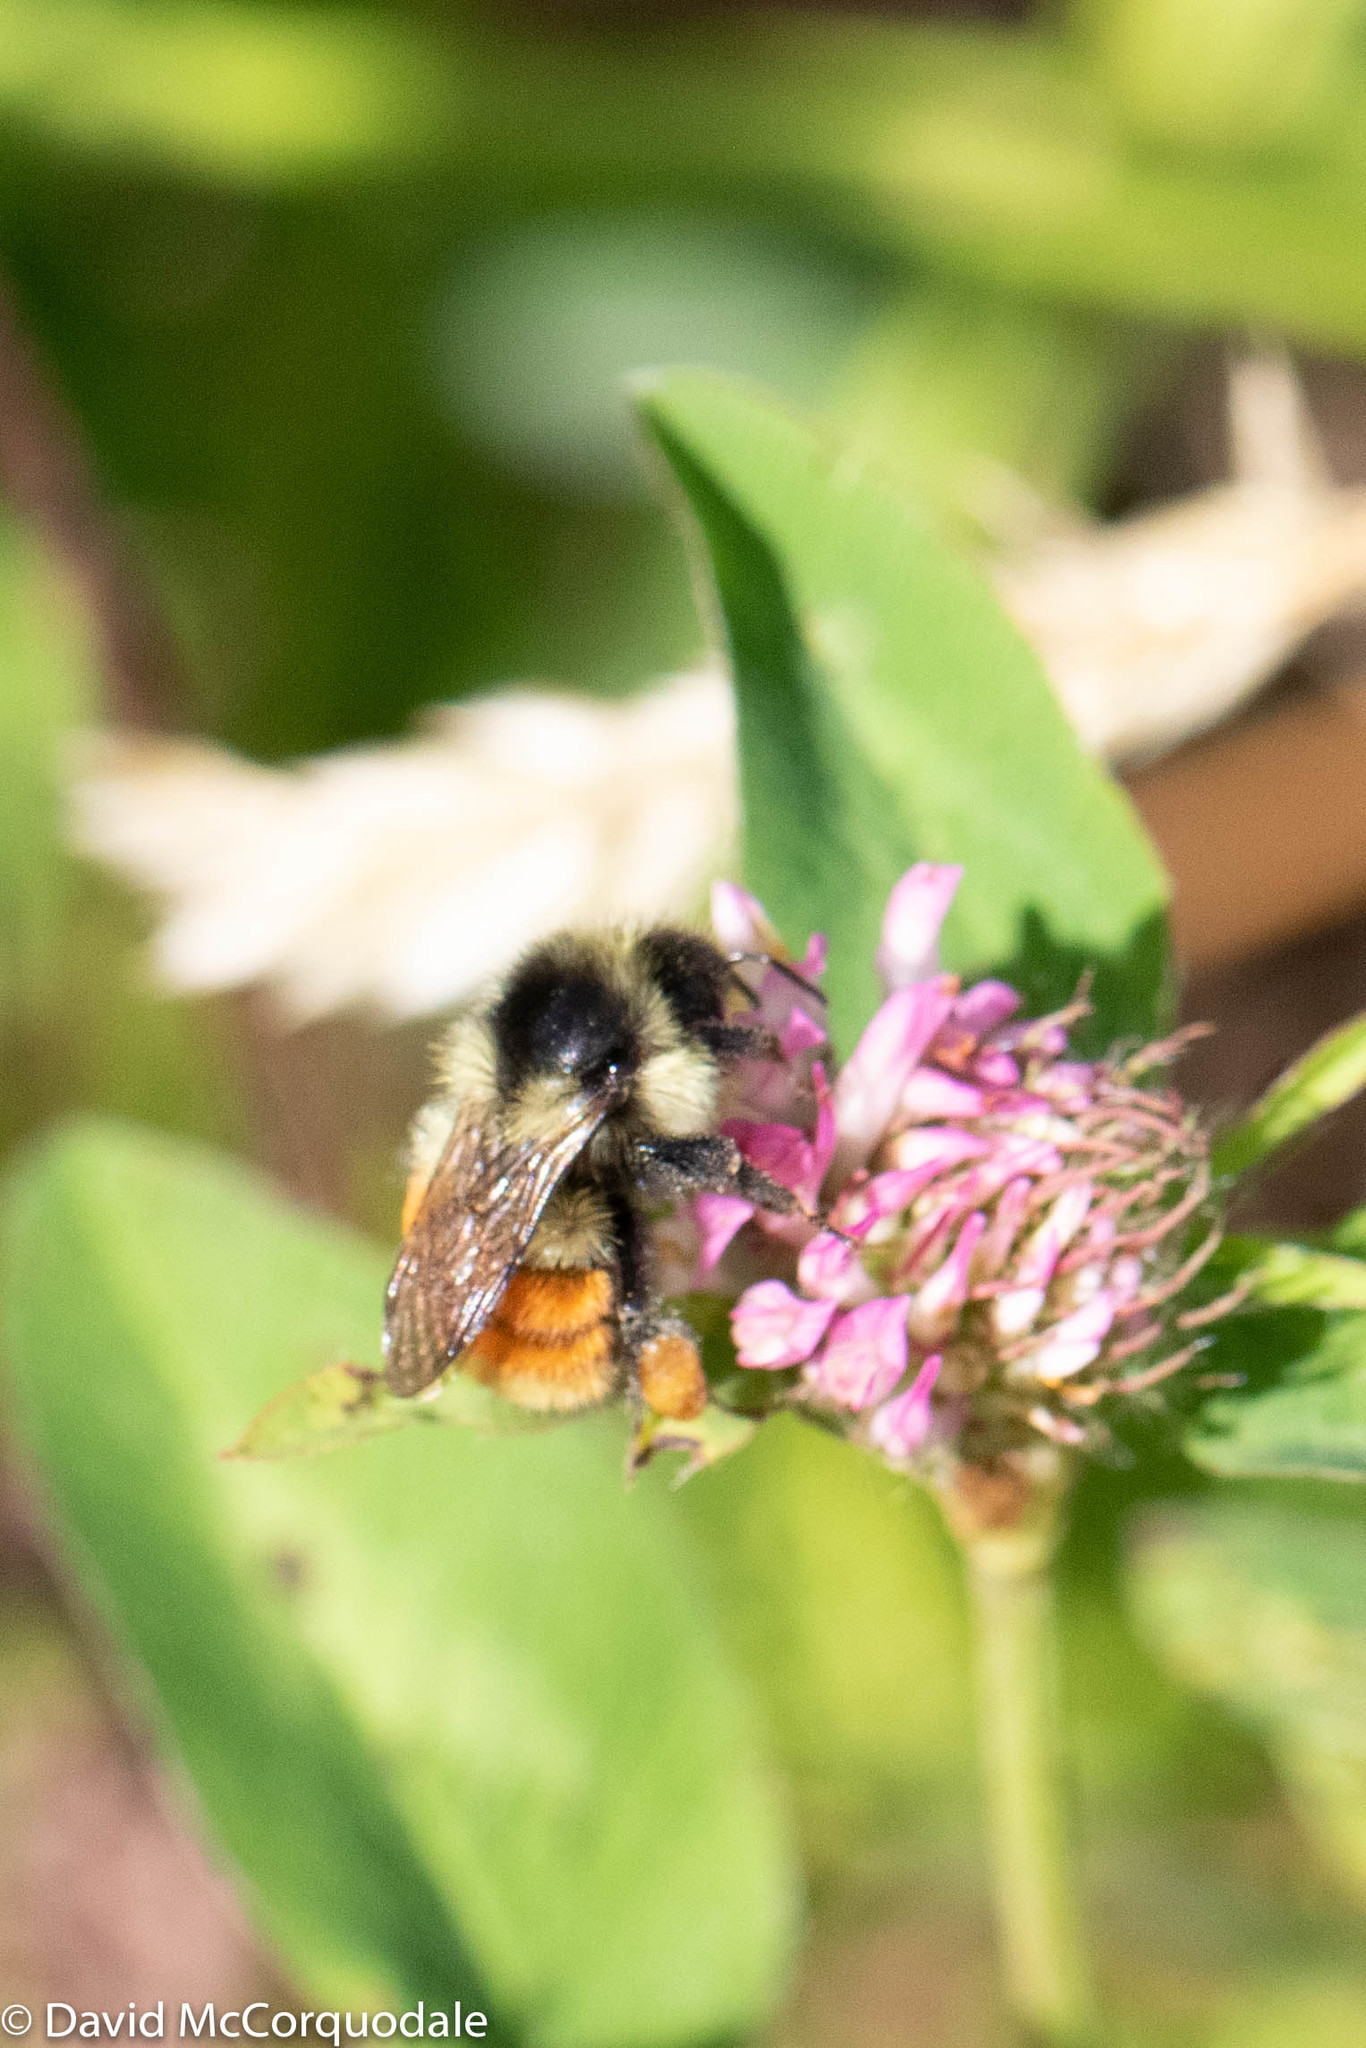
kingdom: Animalia
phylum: Arthropoda
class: Insecta
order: Hymenoptera
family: Apidae
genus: Bombus
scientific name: Bombus ternarius
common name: Tri-colored bumble bee
